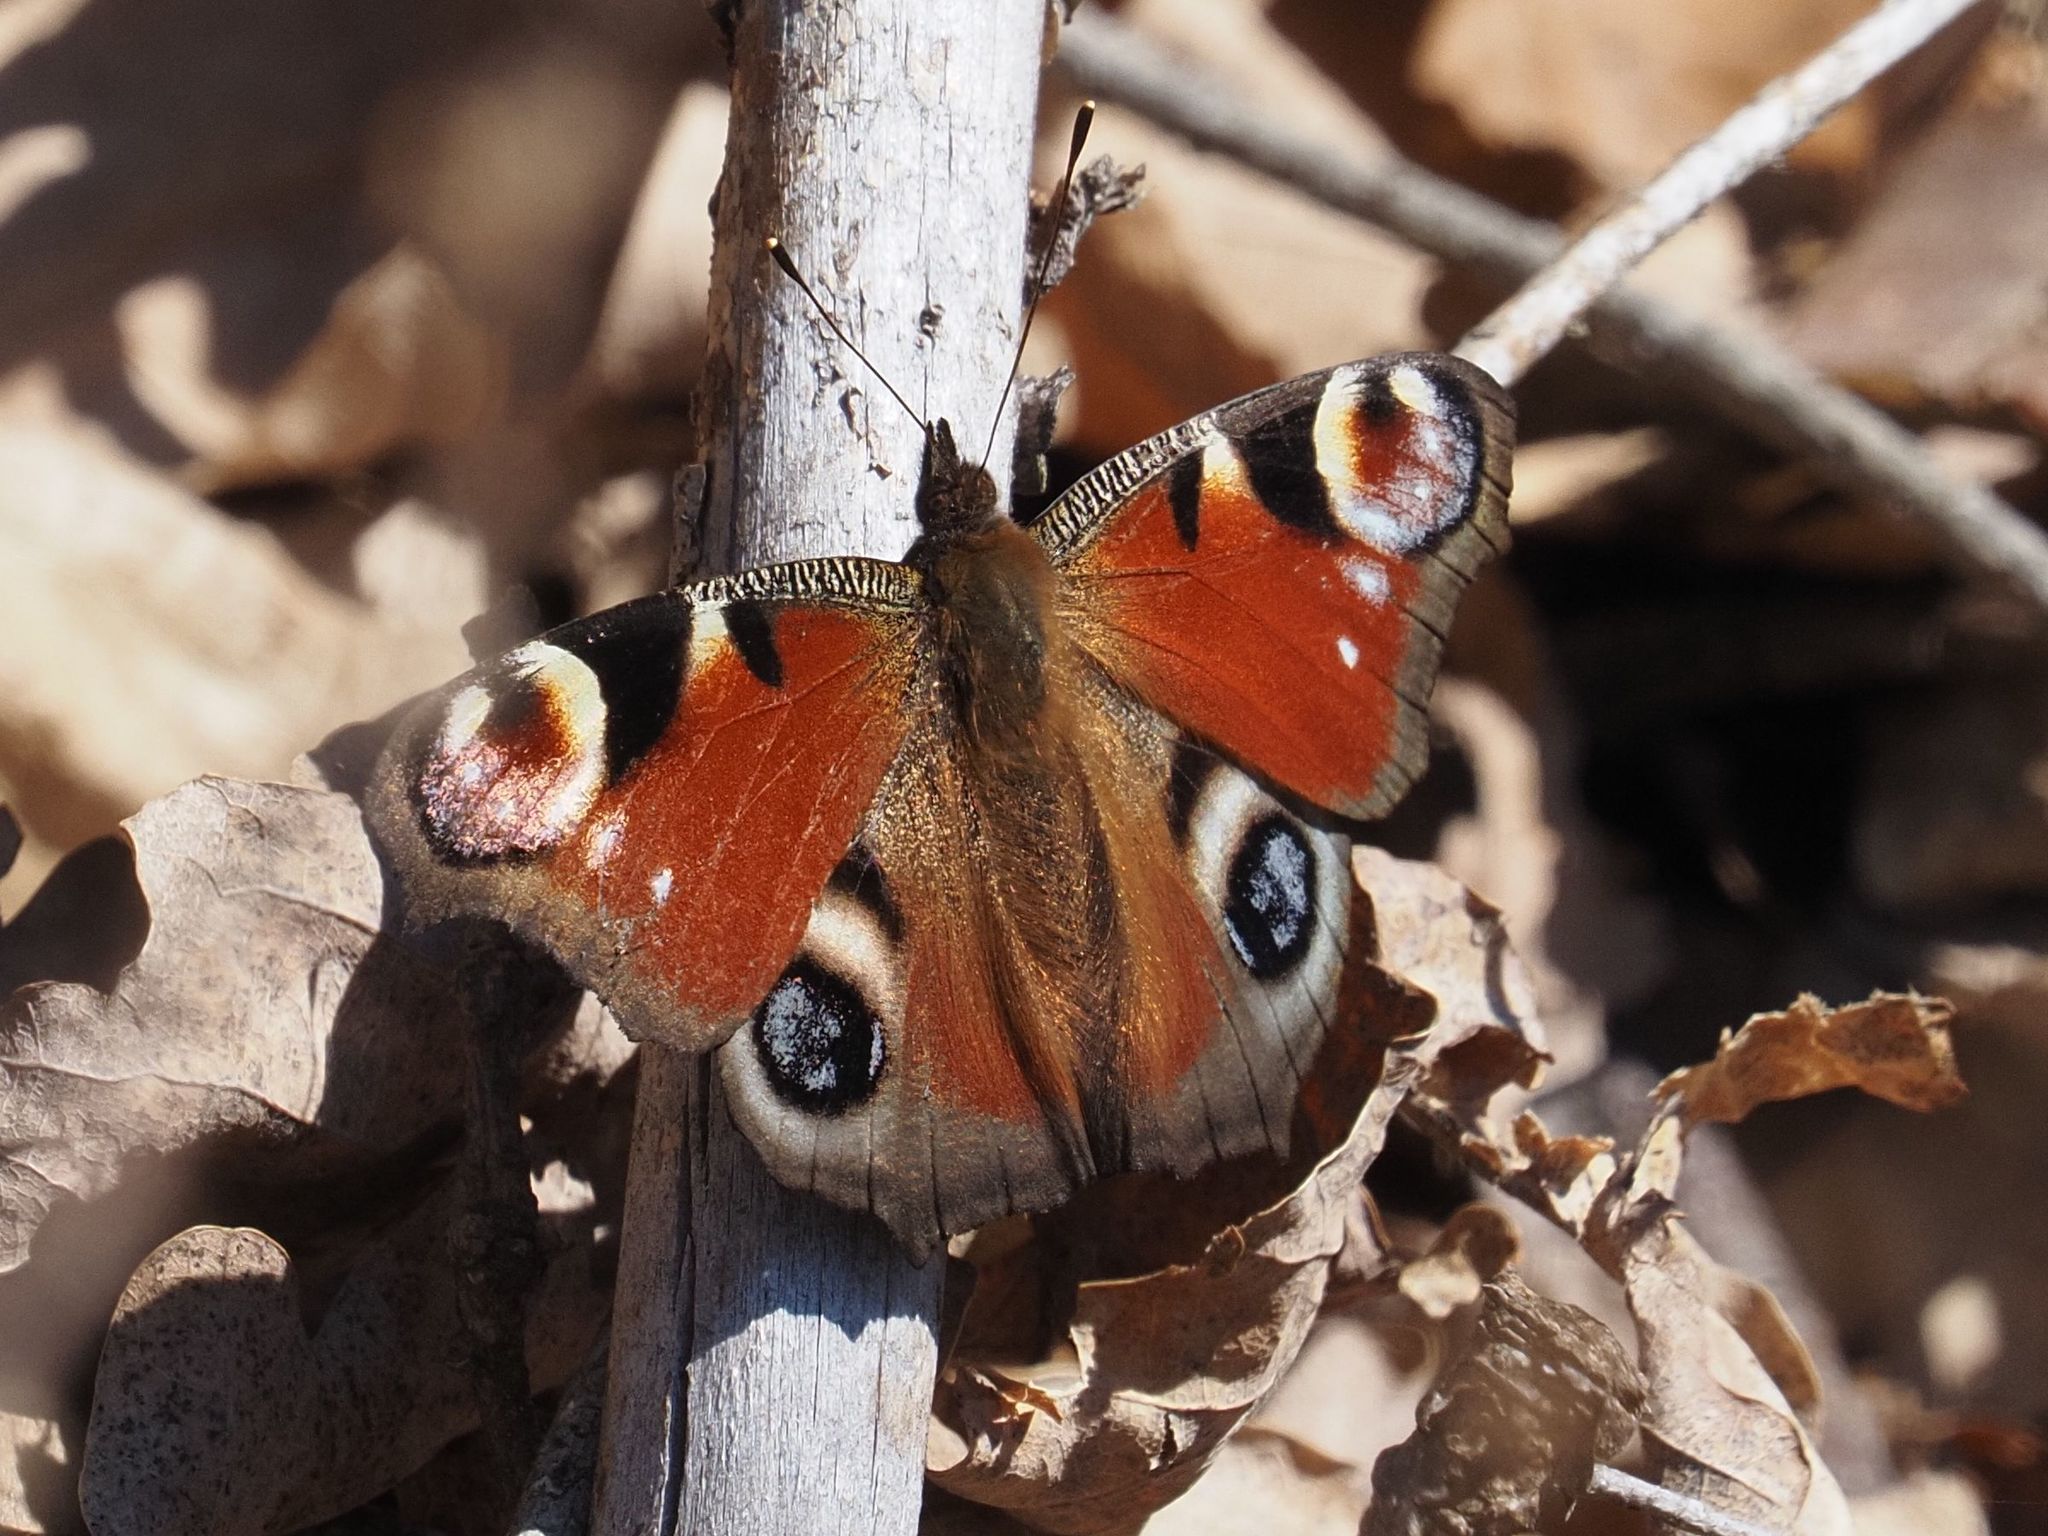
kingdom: Animalia
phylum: Arthropoda
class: Insecta
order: Lepidoptera
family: Nymphalidae
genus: Aglais
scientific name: Aglais io
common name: Peacock
